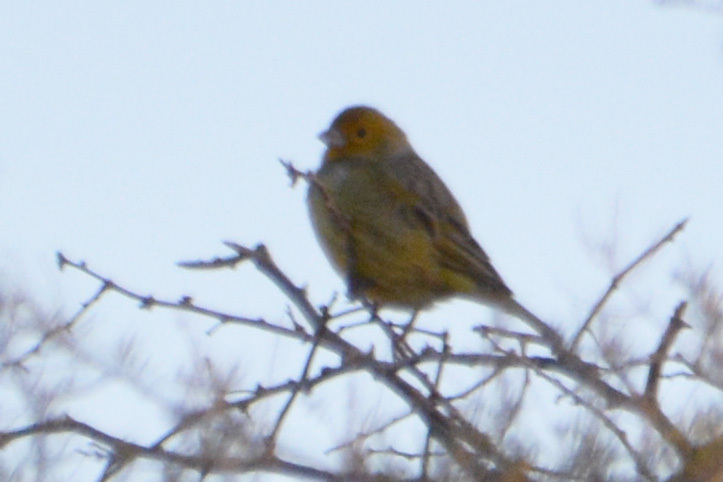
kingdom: Animalia
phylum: Chordata
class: Aves
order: Passeriformes
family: Thraupidae
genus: Sicalis
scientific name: Sicalis flaveola
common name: Saffron finch
